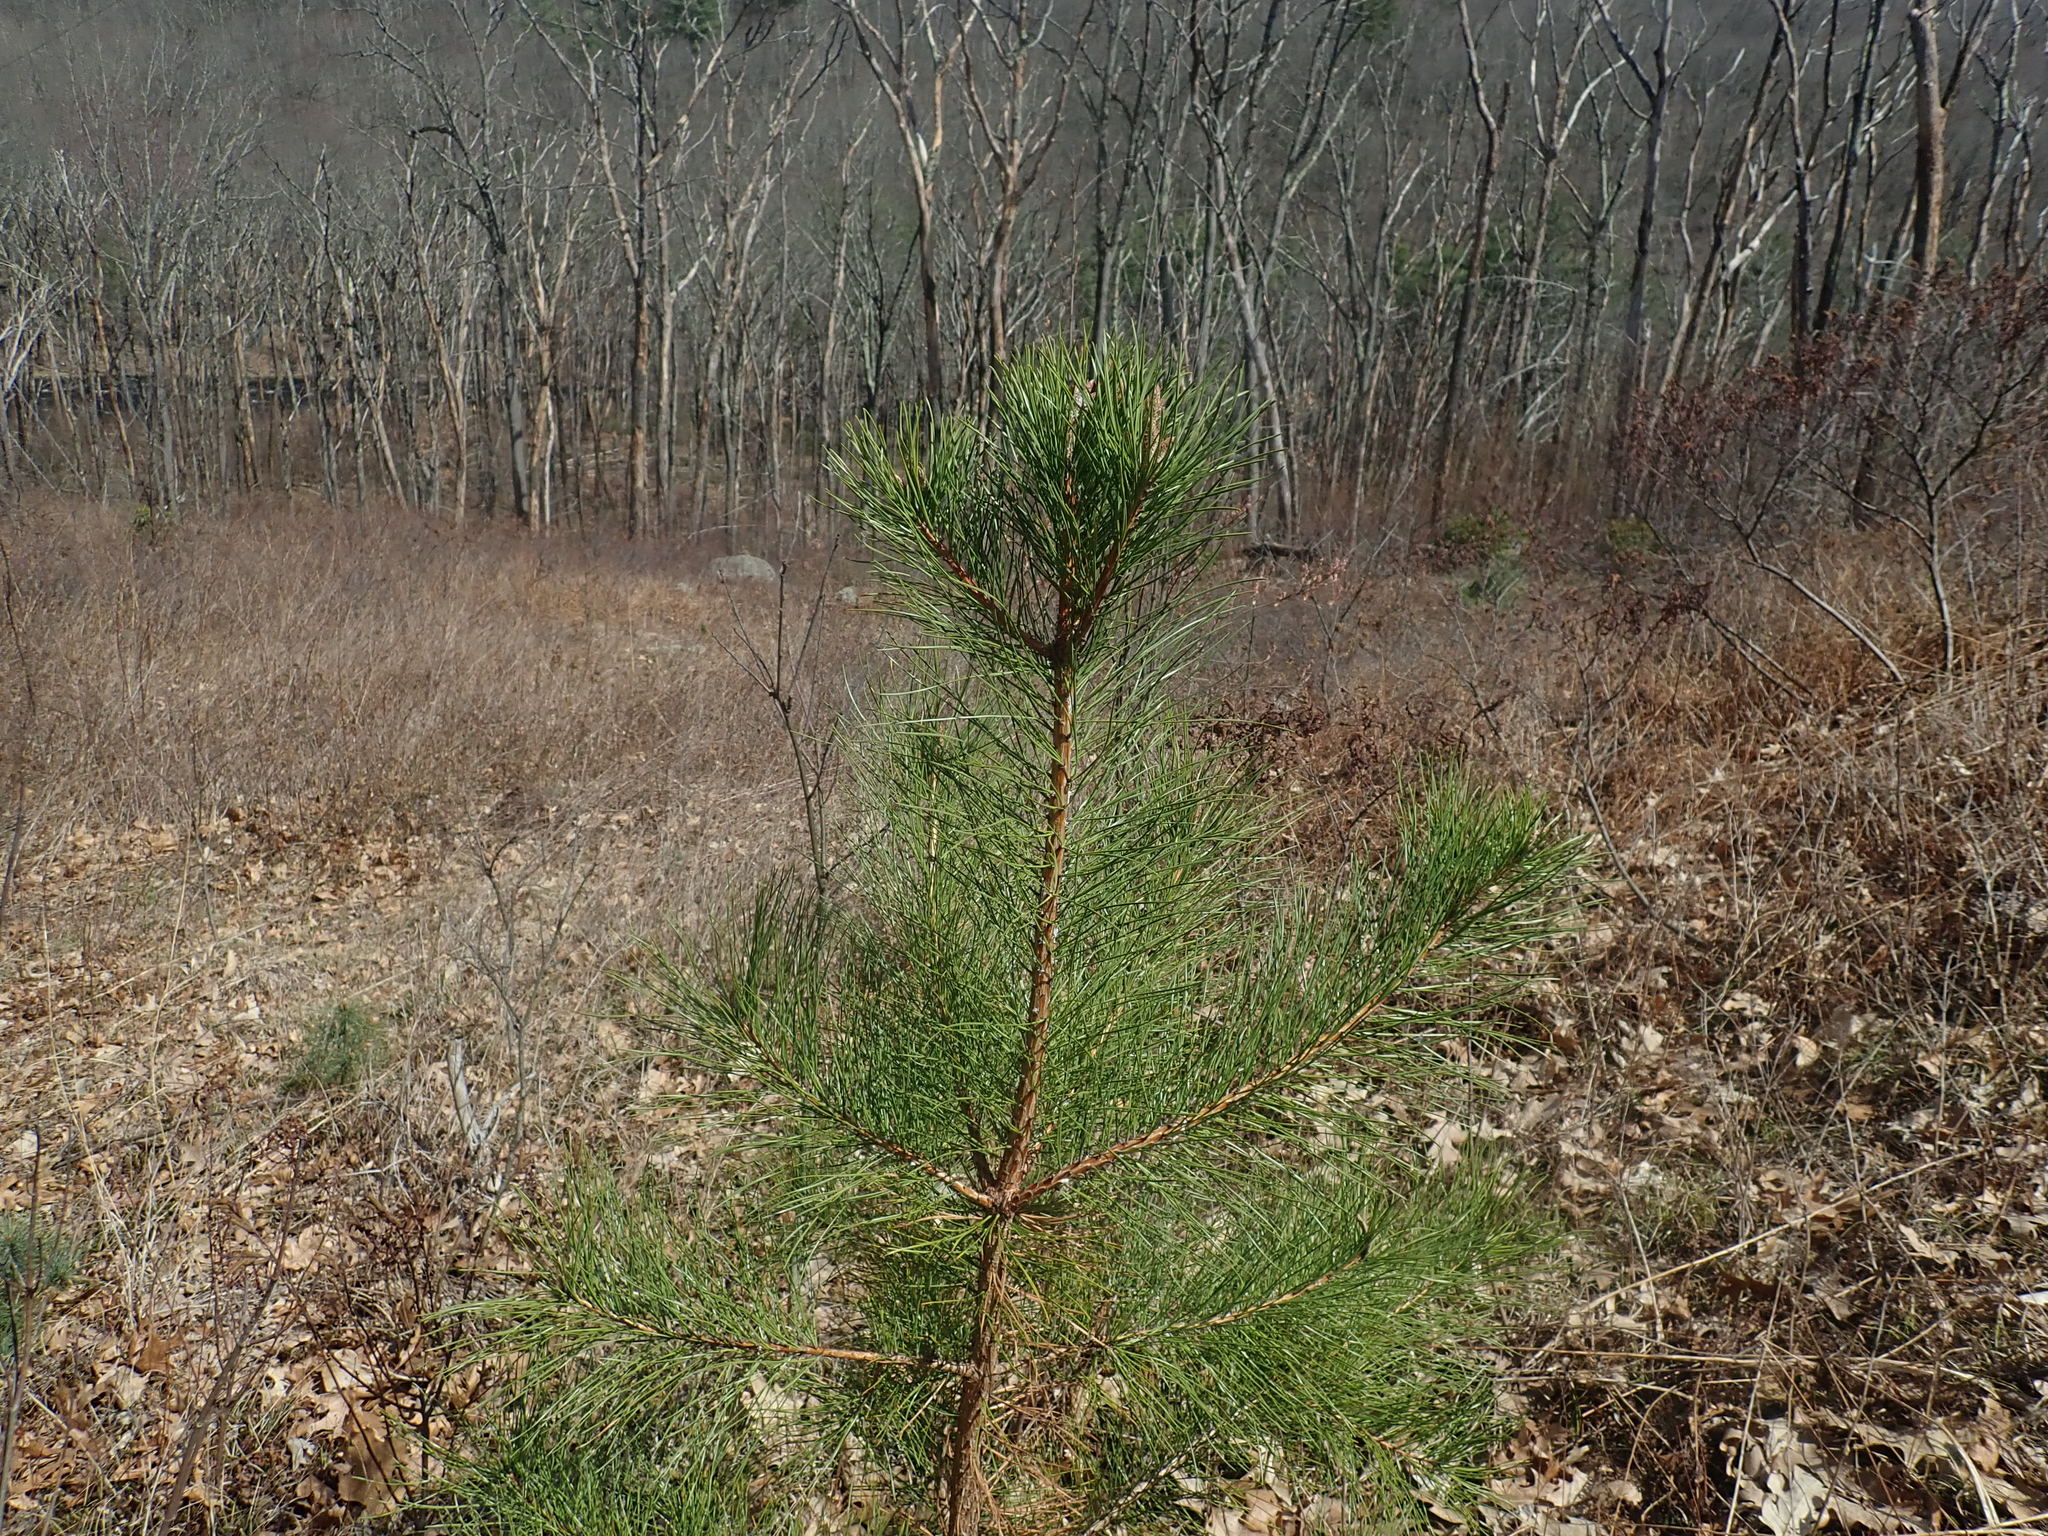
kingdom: Plantae
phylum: Tracheophyta
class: Pinopsida
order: Pinales
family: Pinaceae
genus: Pinus
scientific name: Pinus rigida
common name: Pitch pine
